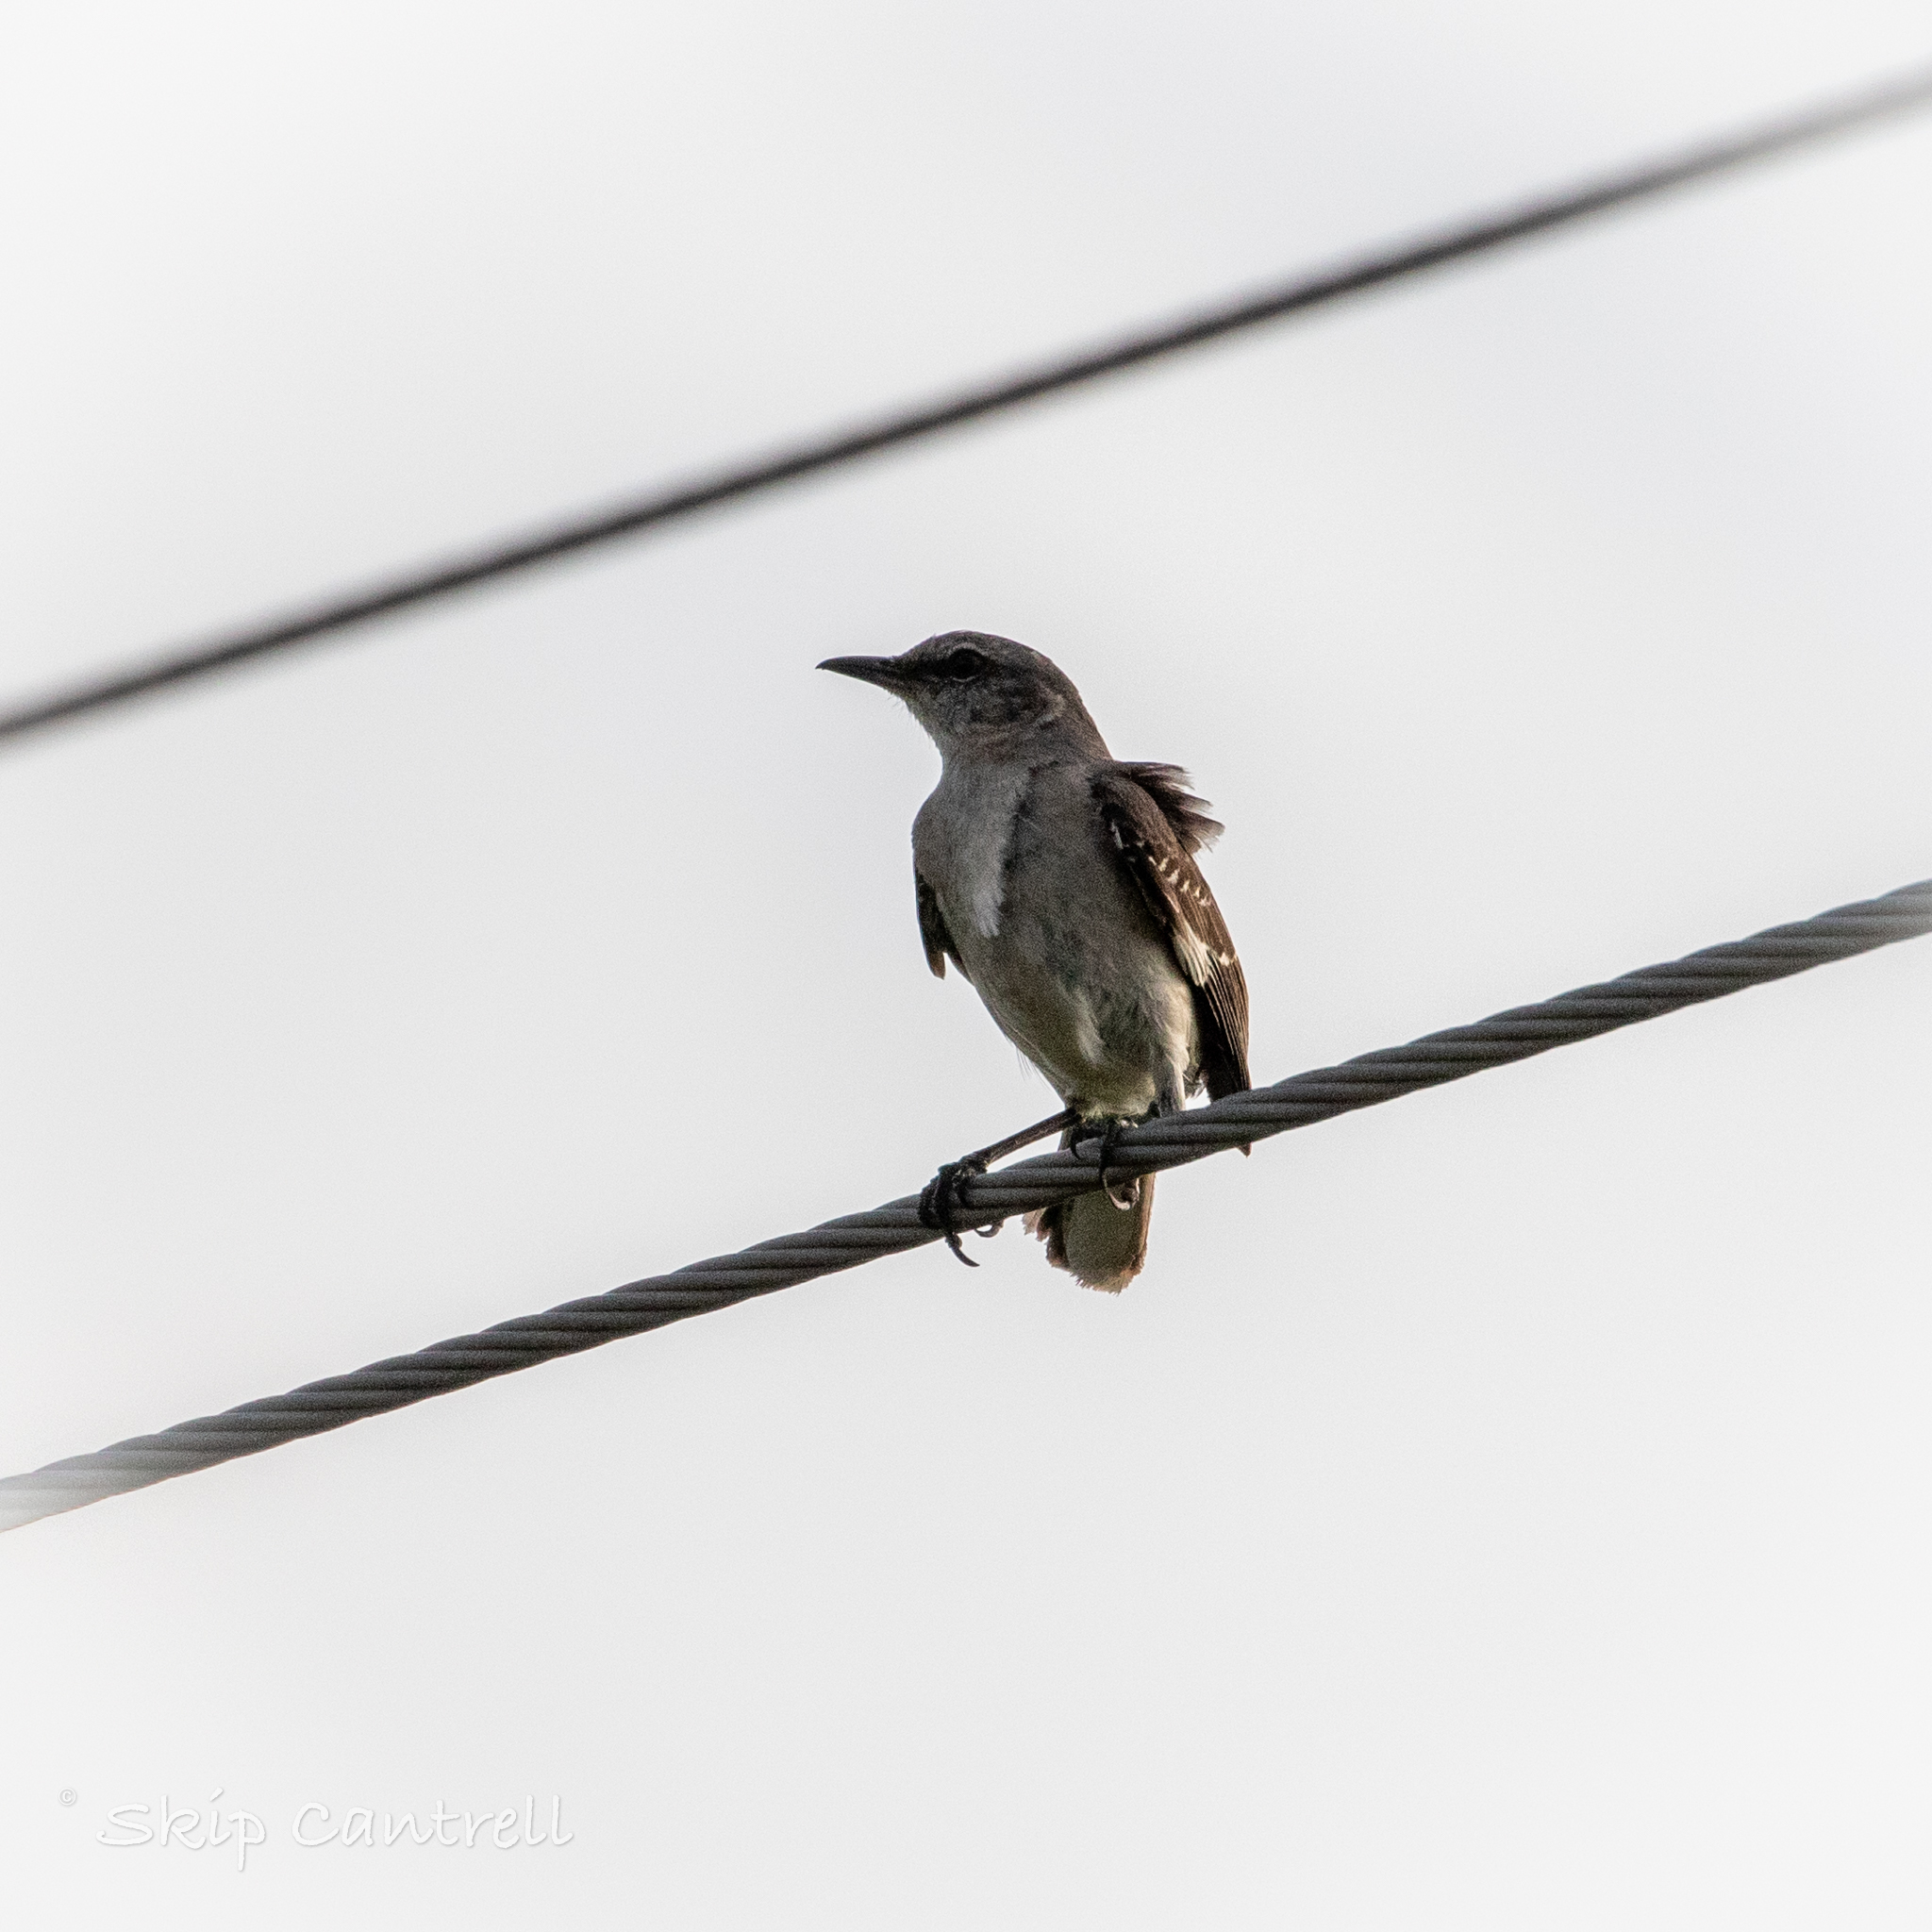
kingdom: Animalia
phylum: Chordata
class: Aves
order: Passeriformes
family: Mimidae
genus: Mimus
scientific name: Mimus polyglottos
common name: Northern mockingbird
